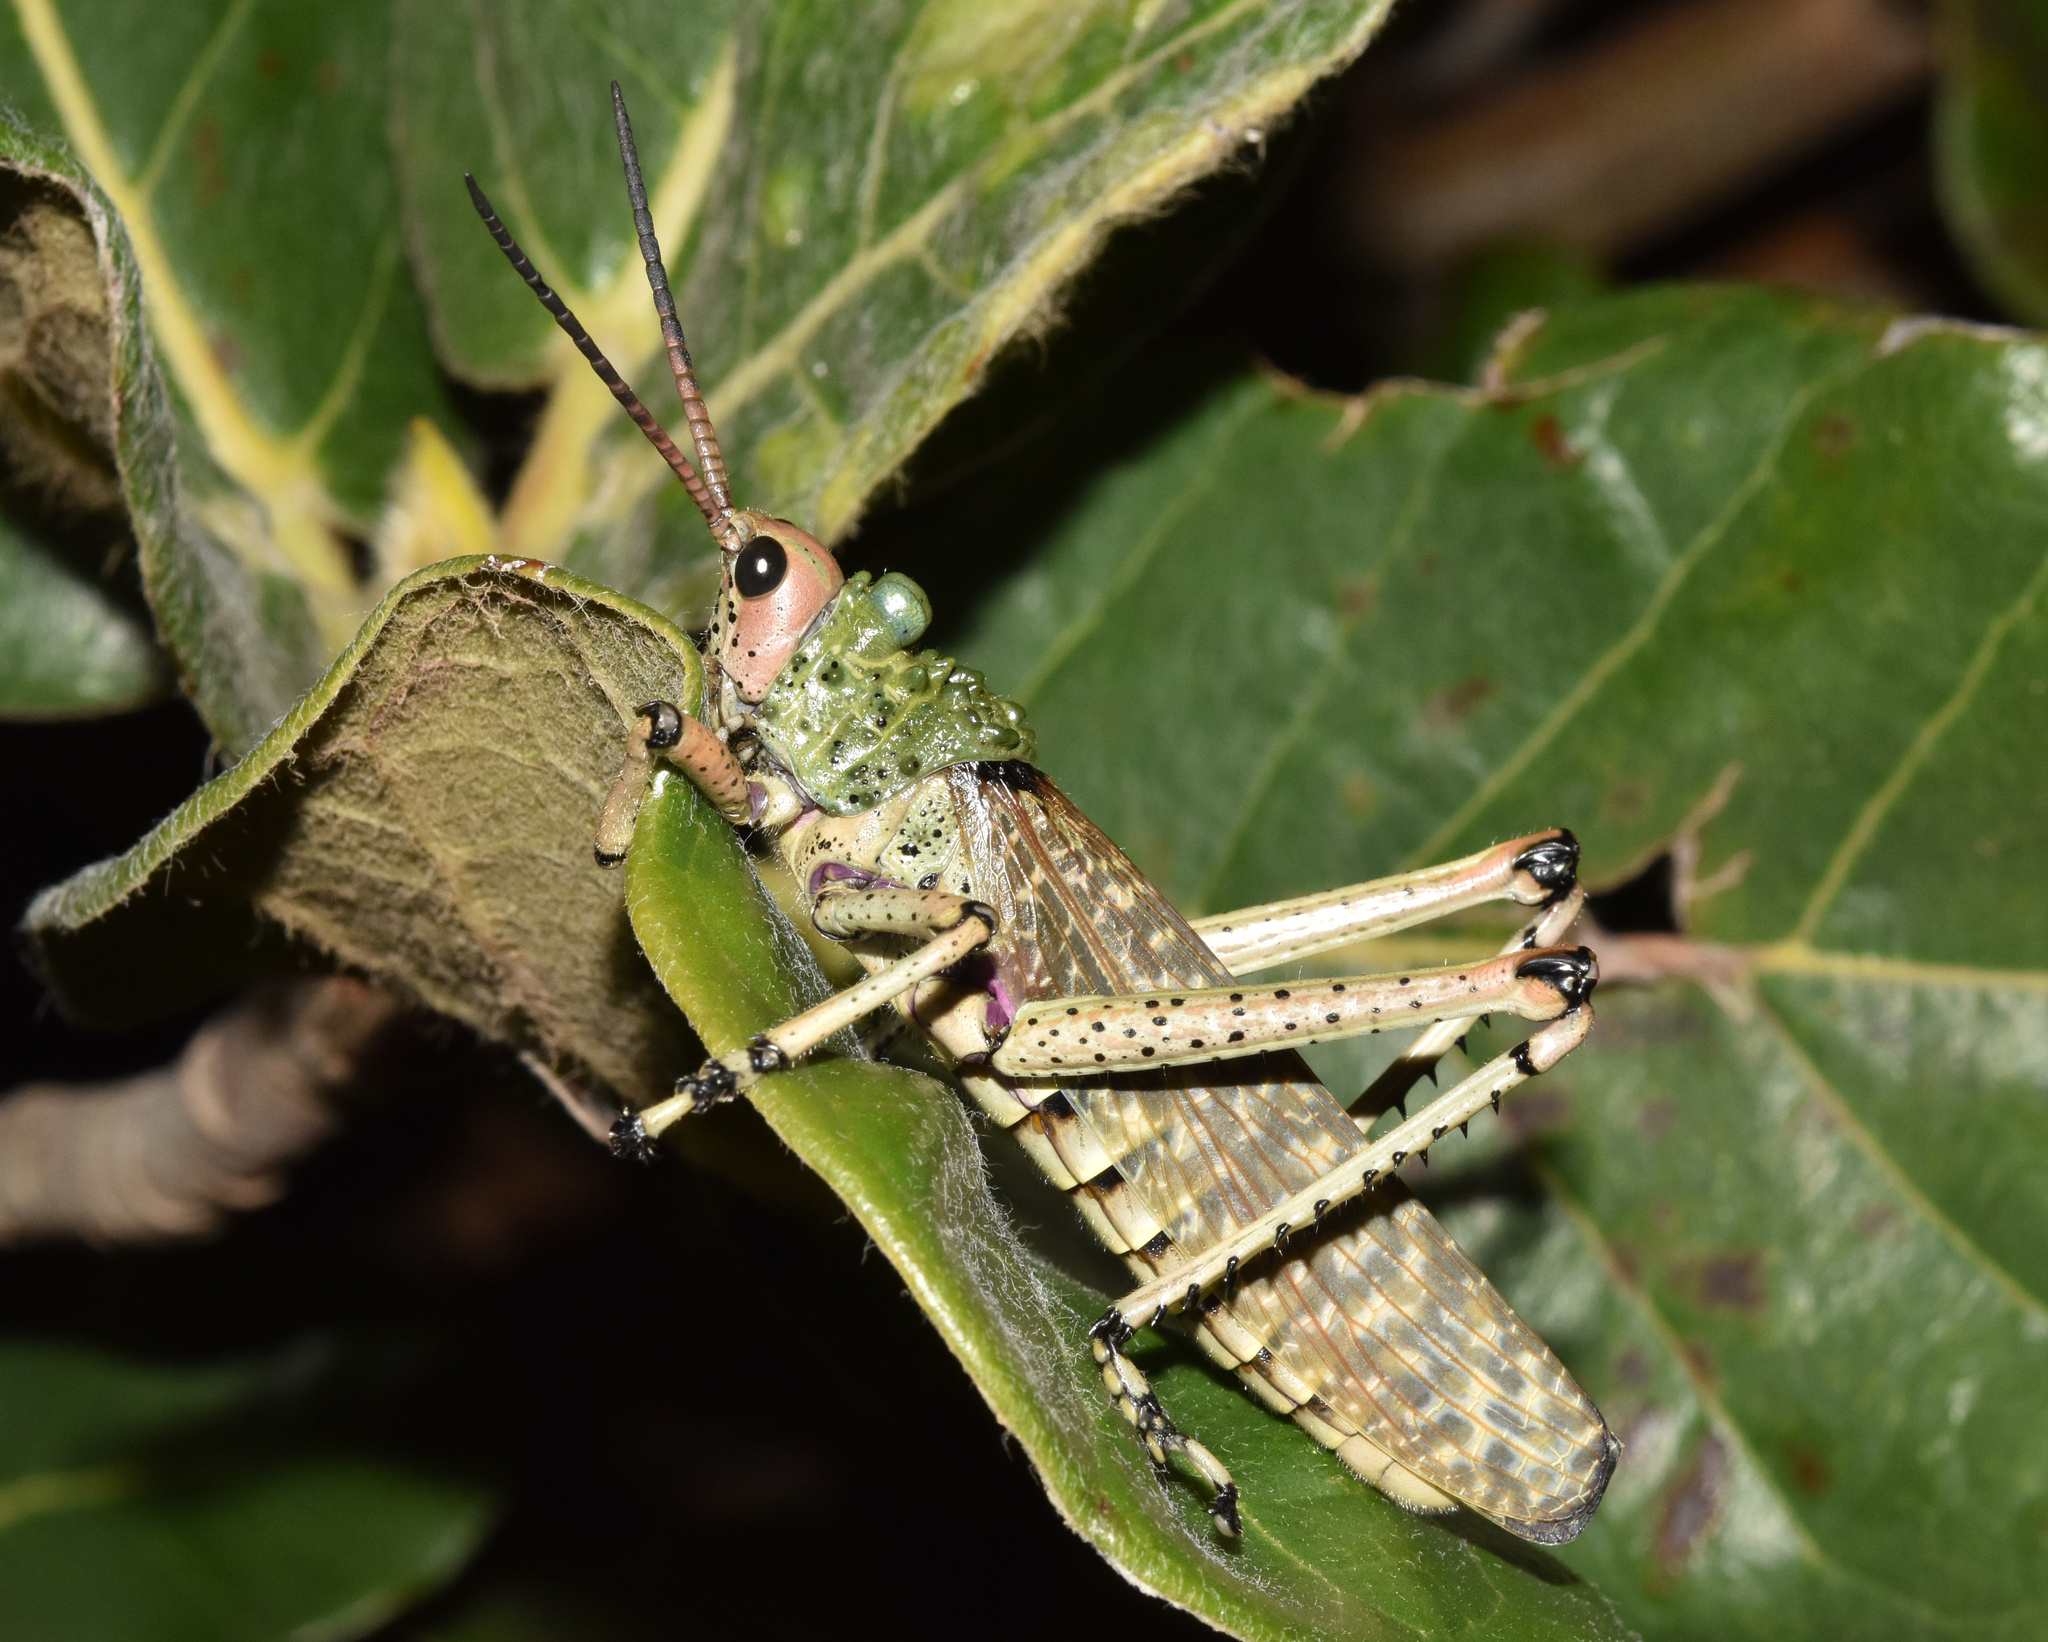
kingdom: Animalia
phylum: Arthropoda
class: Insecta
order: Orthoptera
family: Pyrgomorphidae
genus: Phymateus
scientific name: Phymateus leprosus
